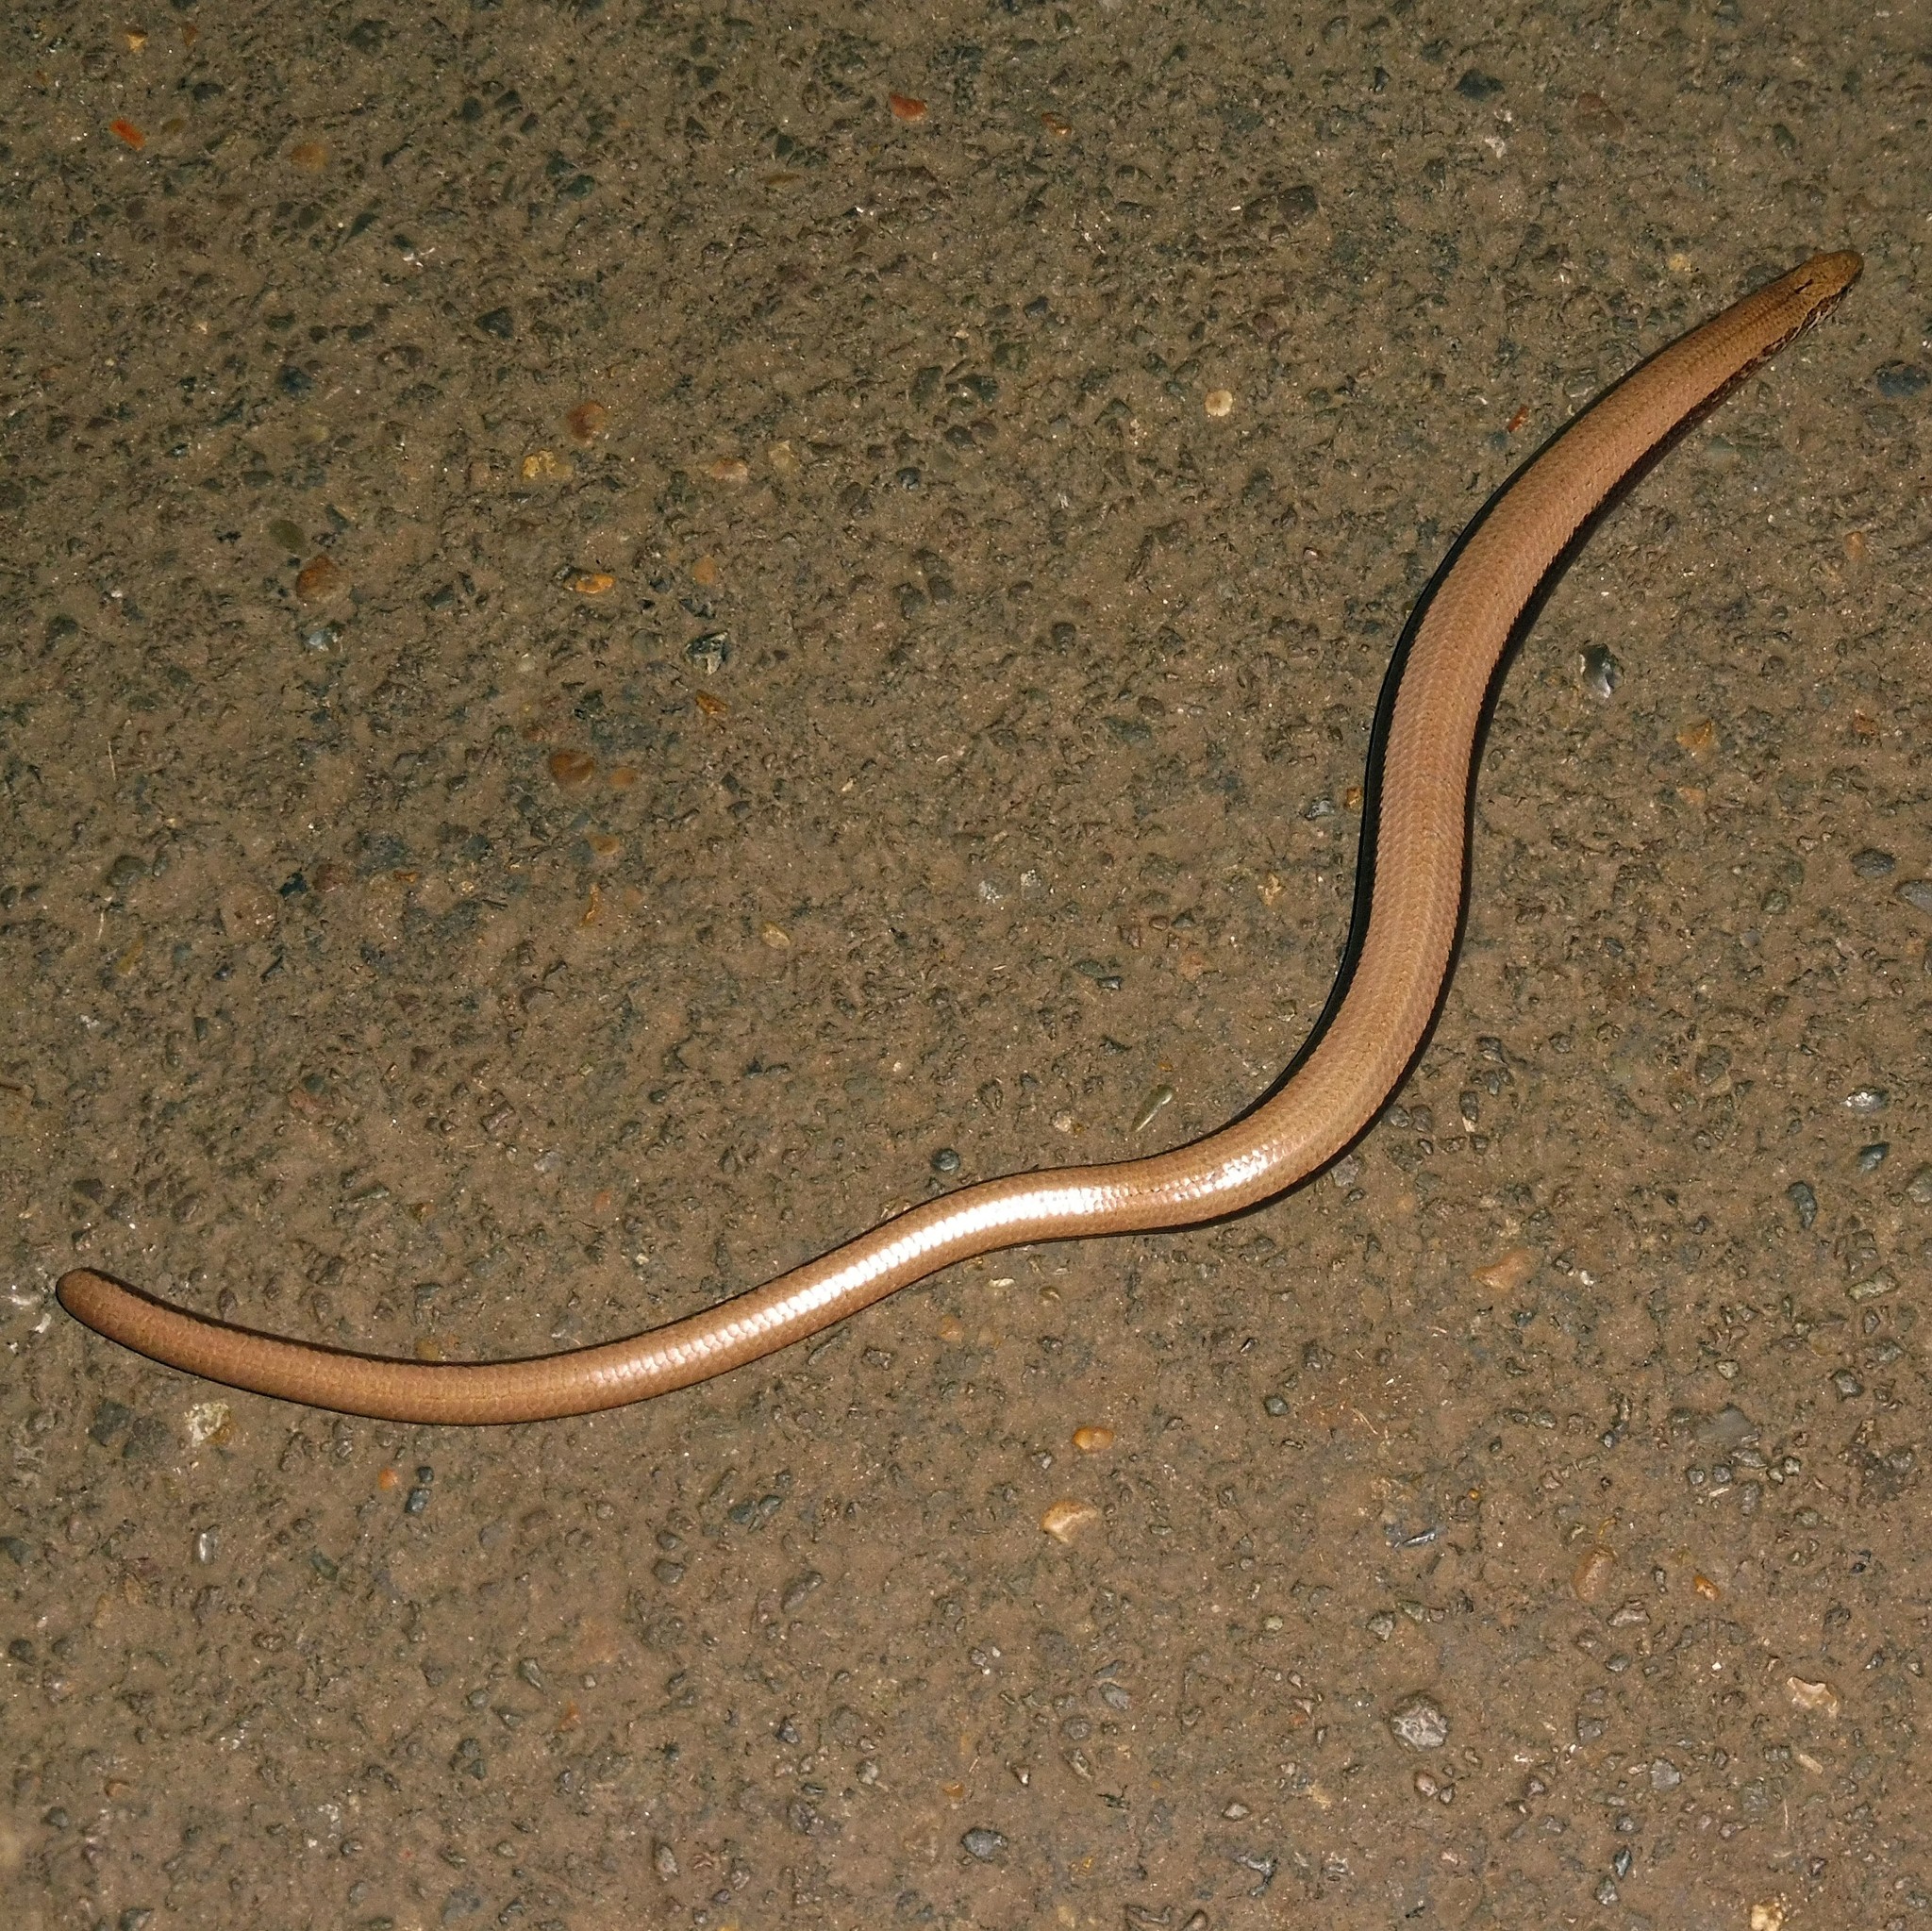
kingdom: Animalia
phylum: Chordata
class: Squamata
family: Anguidae
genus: Anguis
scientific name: Anguis fragilis
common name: Slow worm
